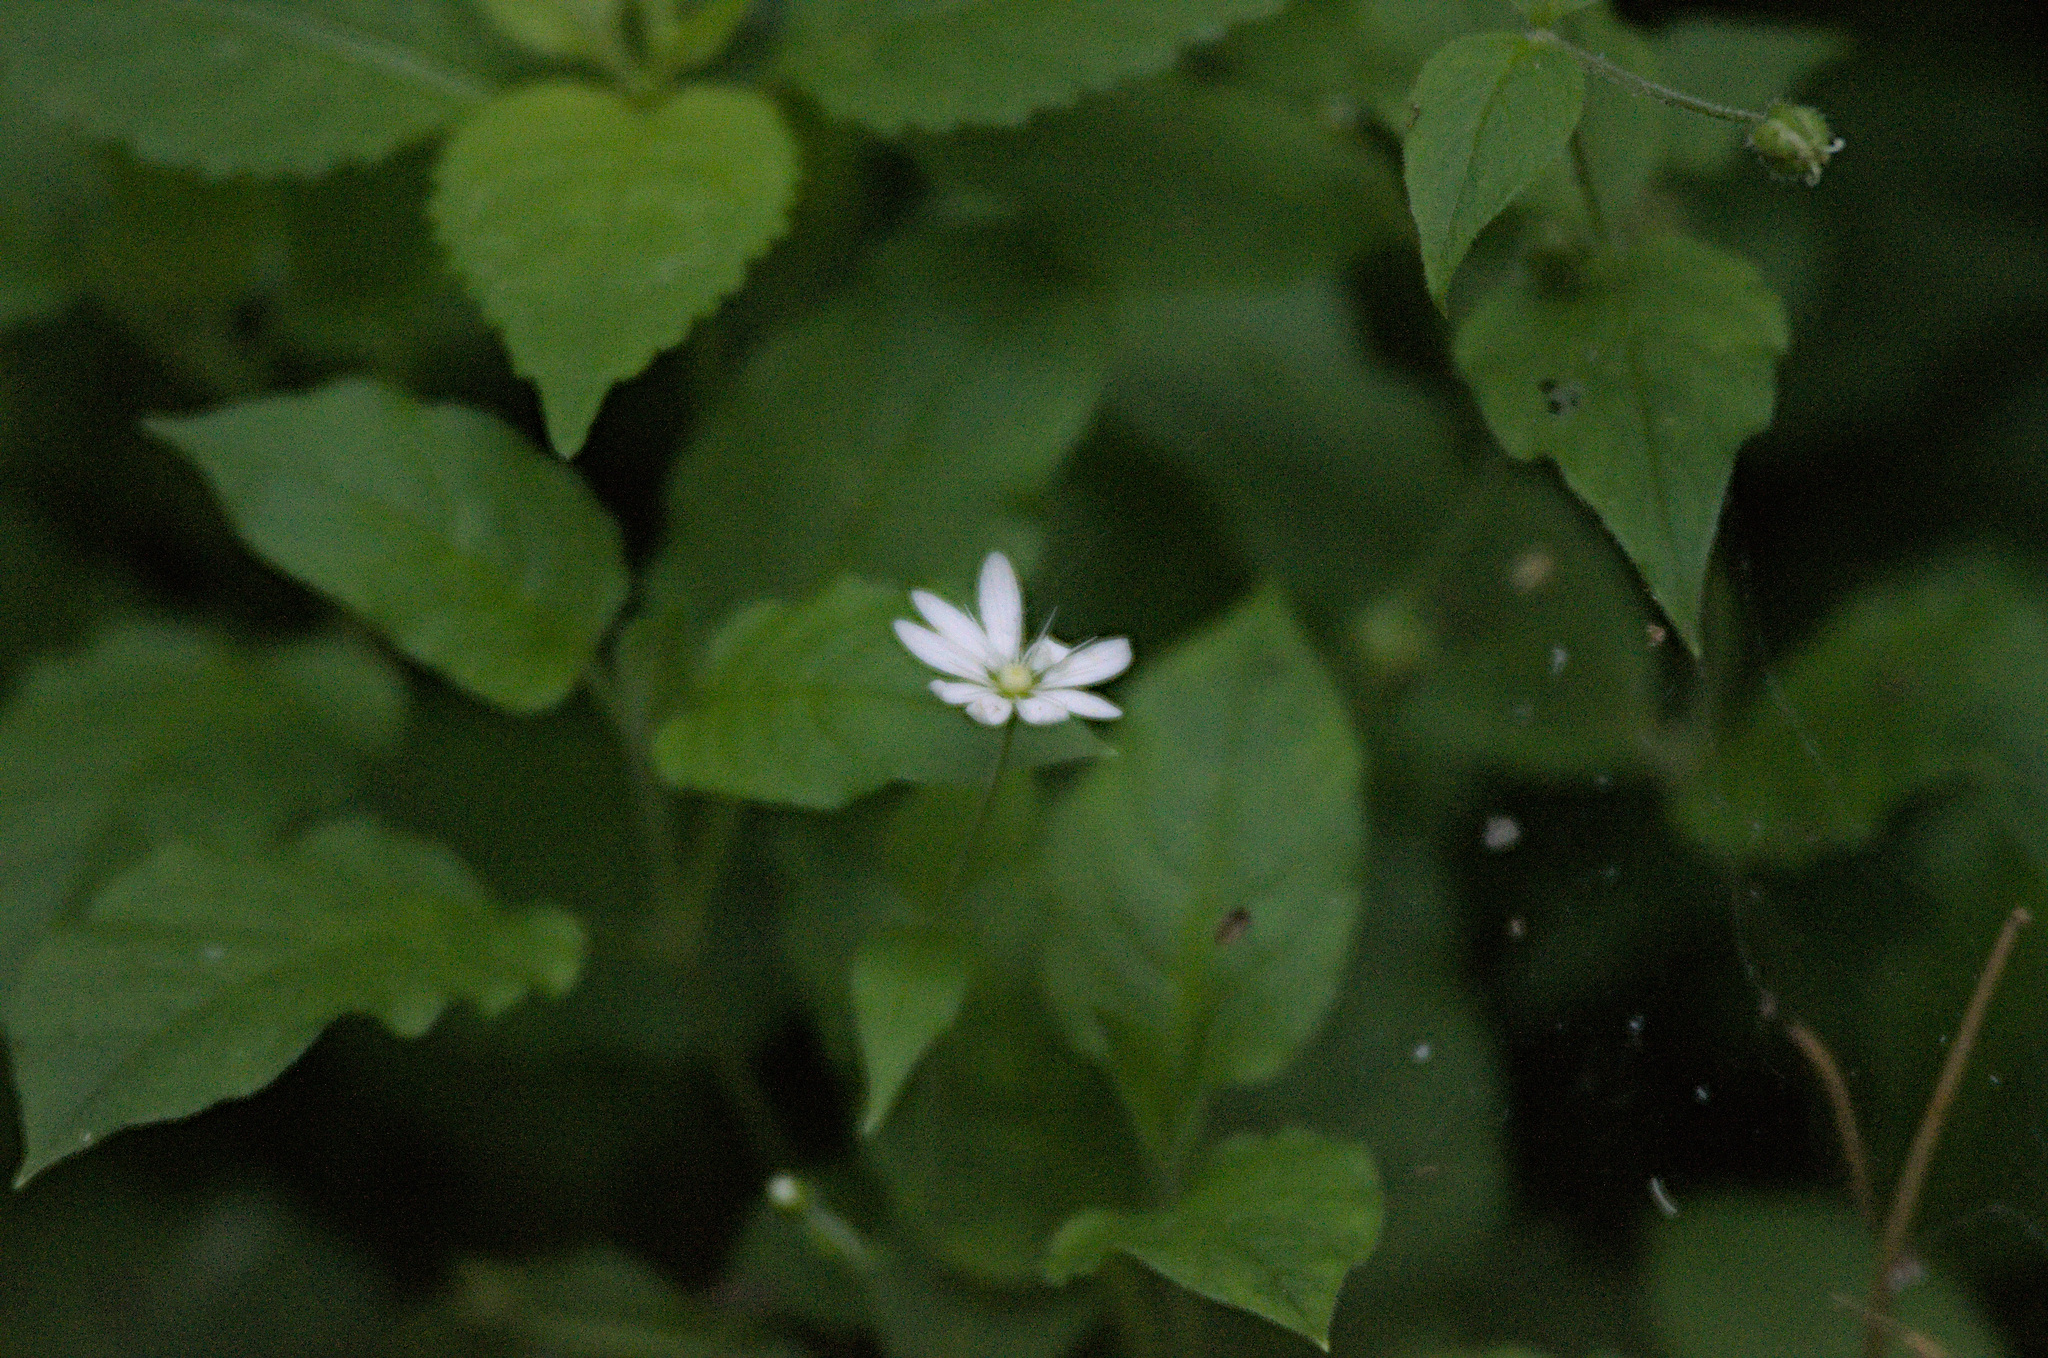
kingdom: Plantae
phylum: Tracheophyta
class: Magnoliopsida
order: Caryophyllales
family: Caryophyllaceae
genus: Stellaria
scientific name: Stellaria bungeana
